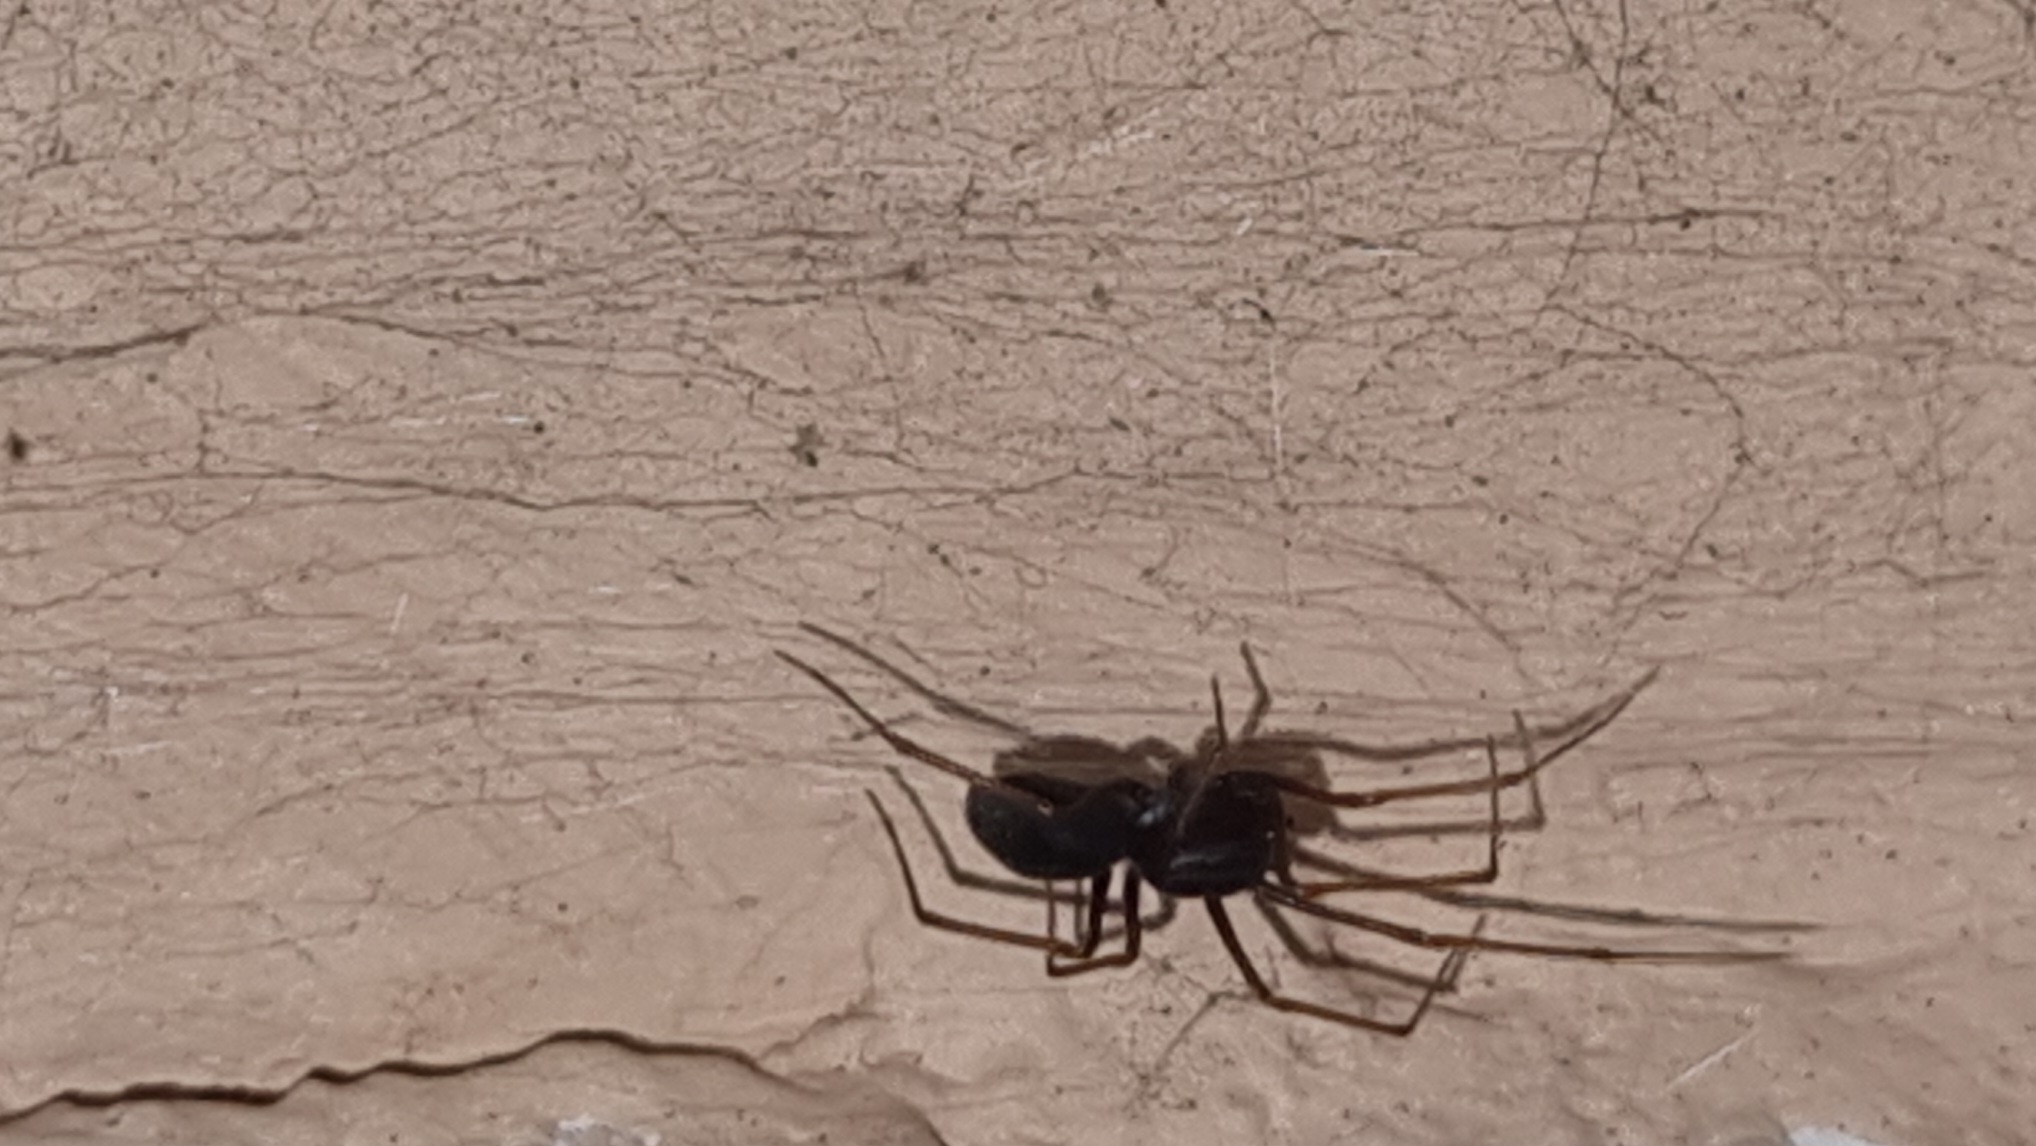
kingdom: Animalia
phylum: Arthropoda
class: Arachnida
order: Araneae
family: Scytodidae
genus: Scytodes
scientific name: Scytodes fusca
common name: Spitting spiders
